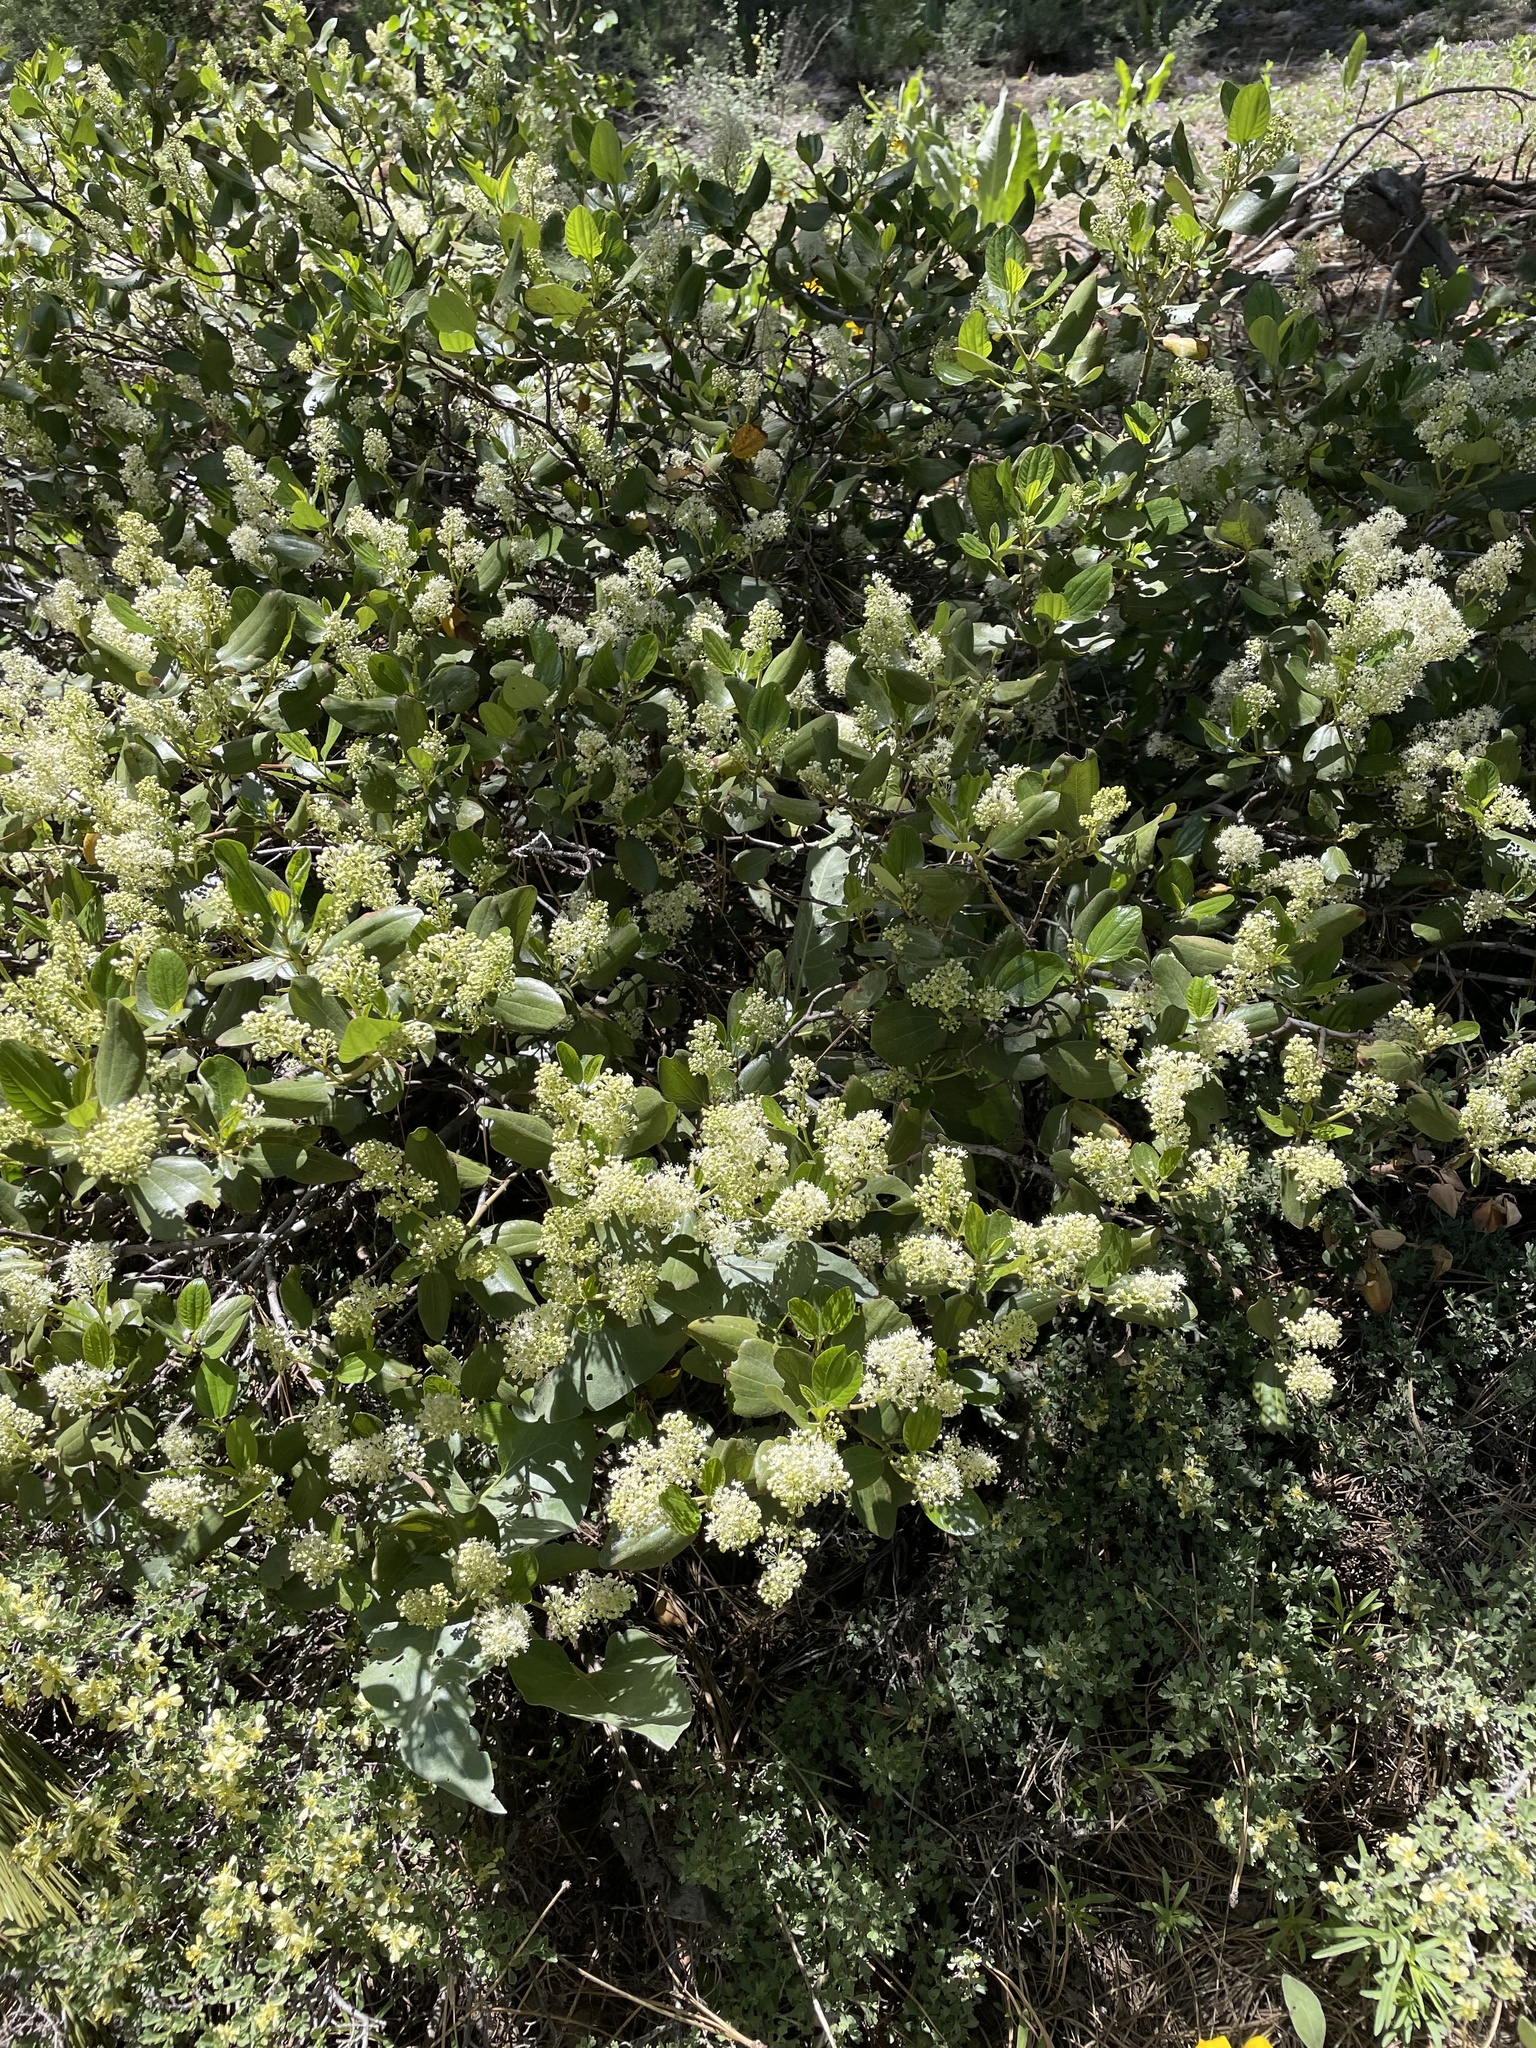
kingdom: Plantae
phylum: Tracheophyta
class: Magnoliopsida
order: Rosales
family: Rhamnaceae
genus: Ceanothus
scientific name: Ceanothus velutinus
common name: Snowbrush
